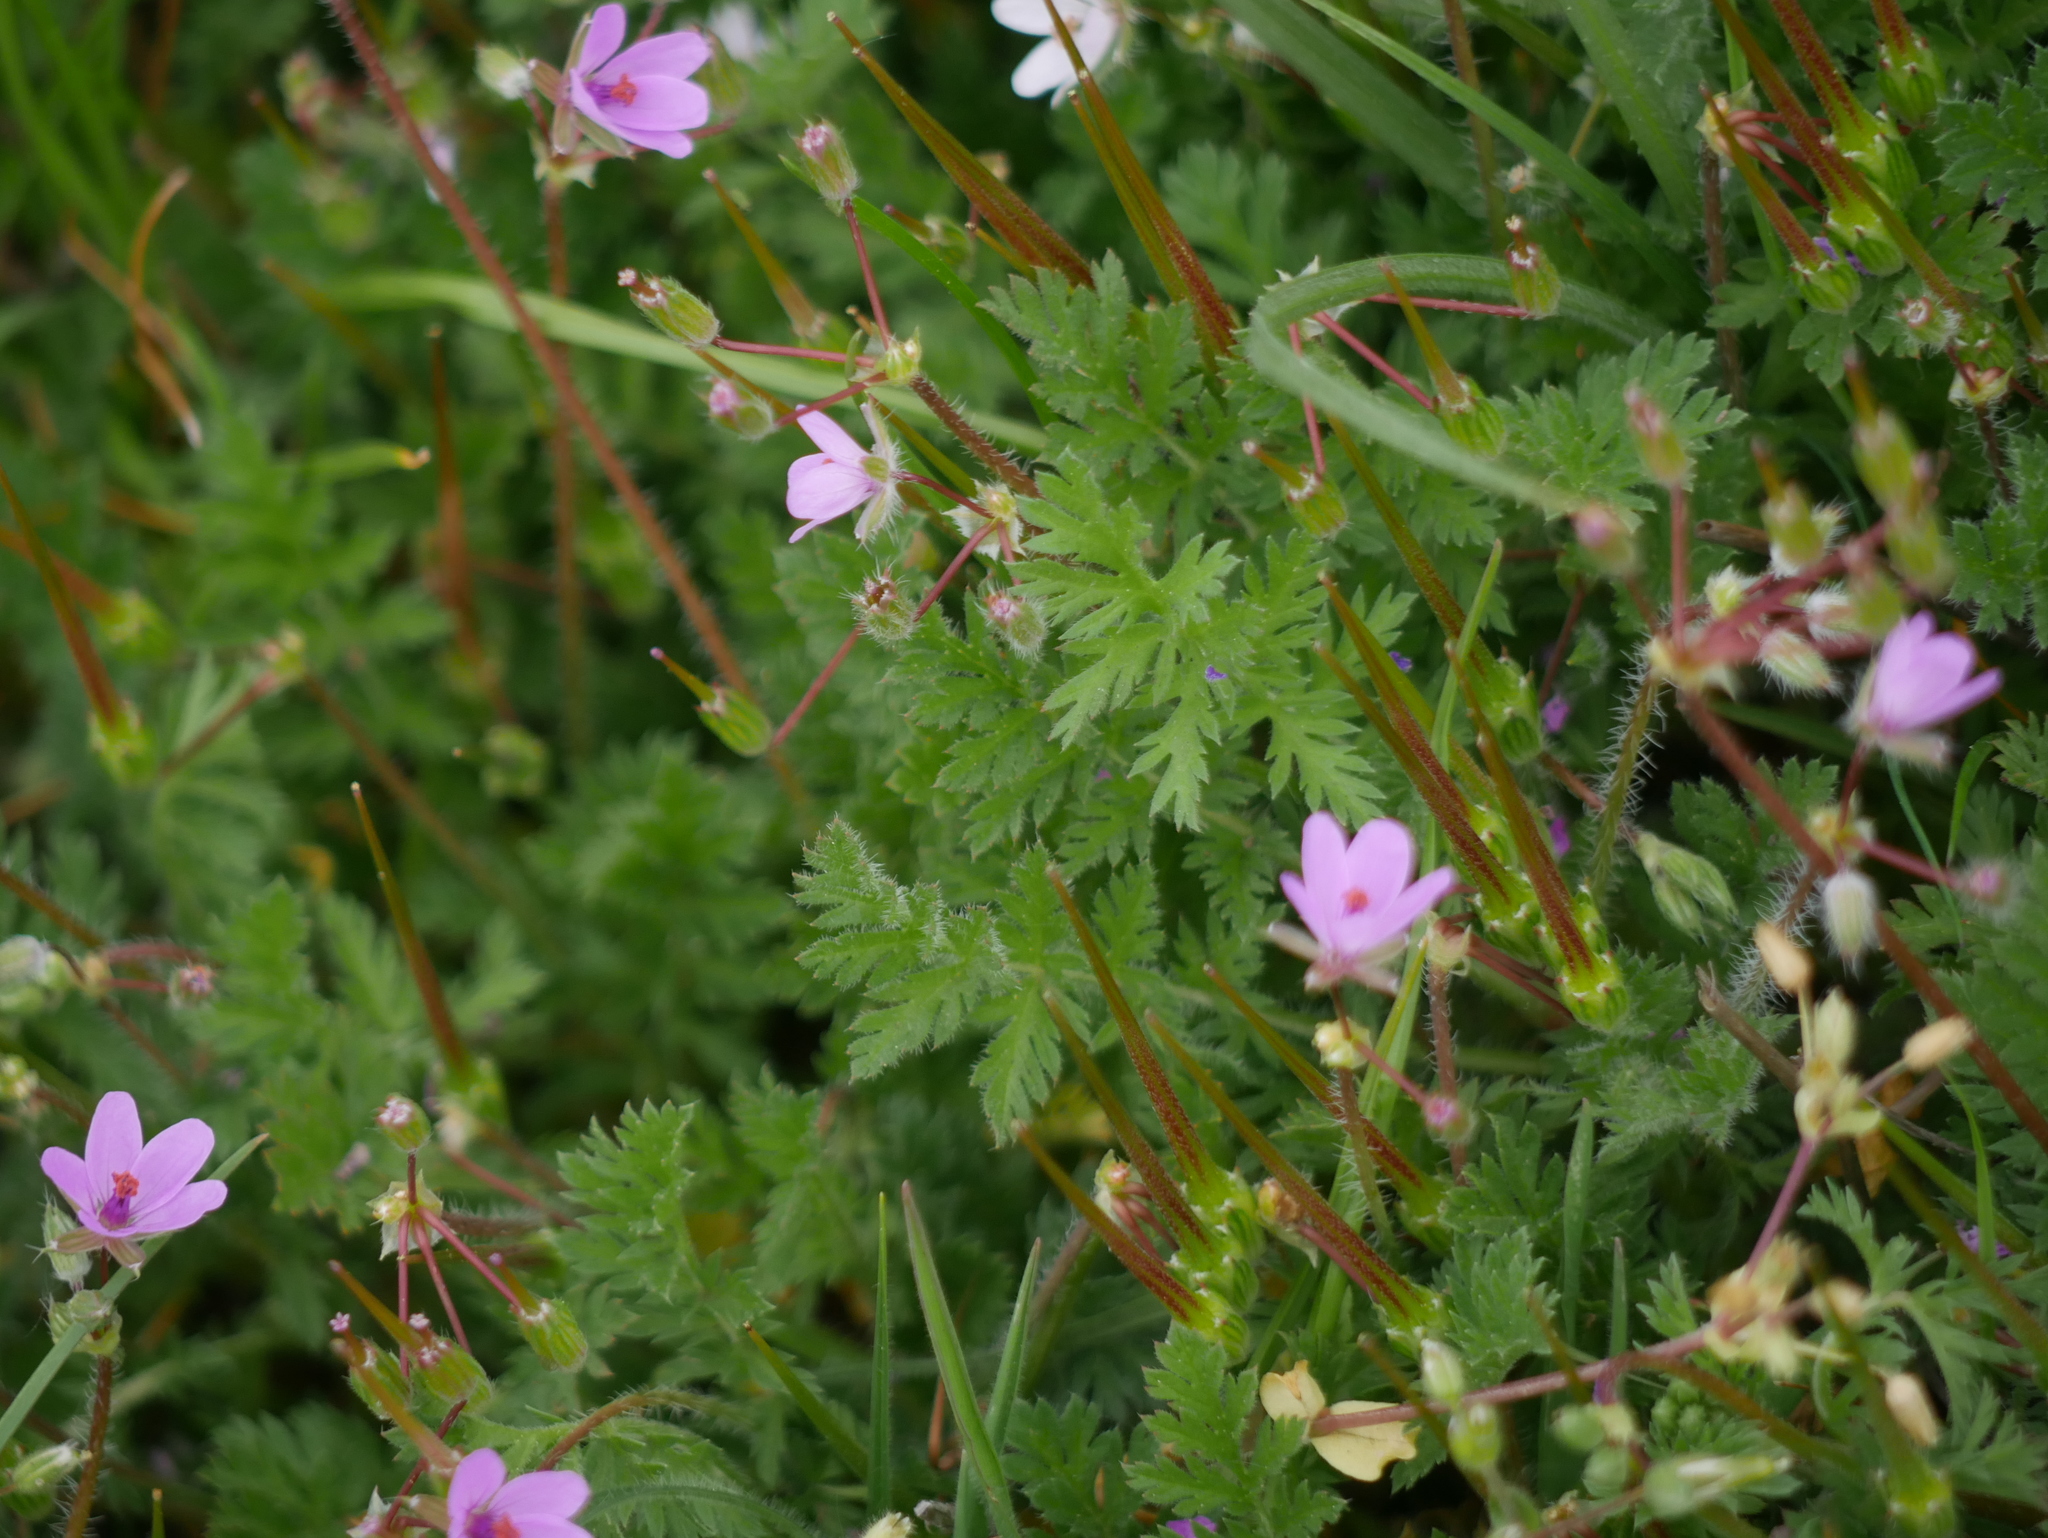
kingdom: Plantae
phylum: Tracheophyta
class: Magnoliopsida
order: Geraniales
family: Geraniaceae
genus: Erodium
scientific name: Erodium cicutarium
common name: Common stork's-bill
